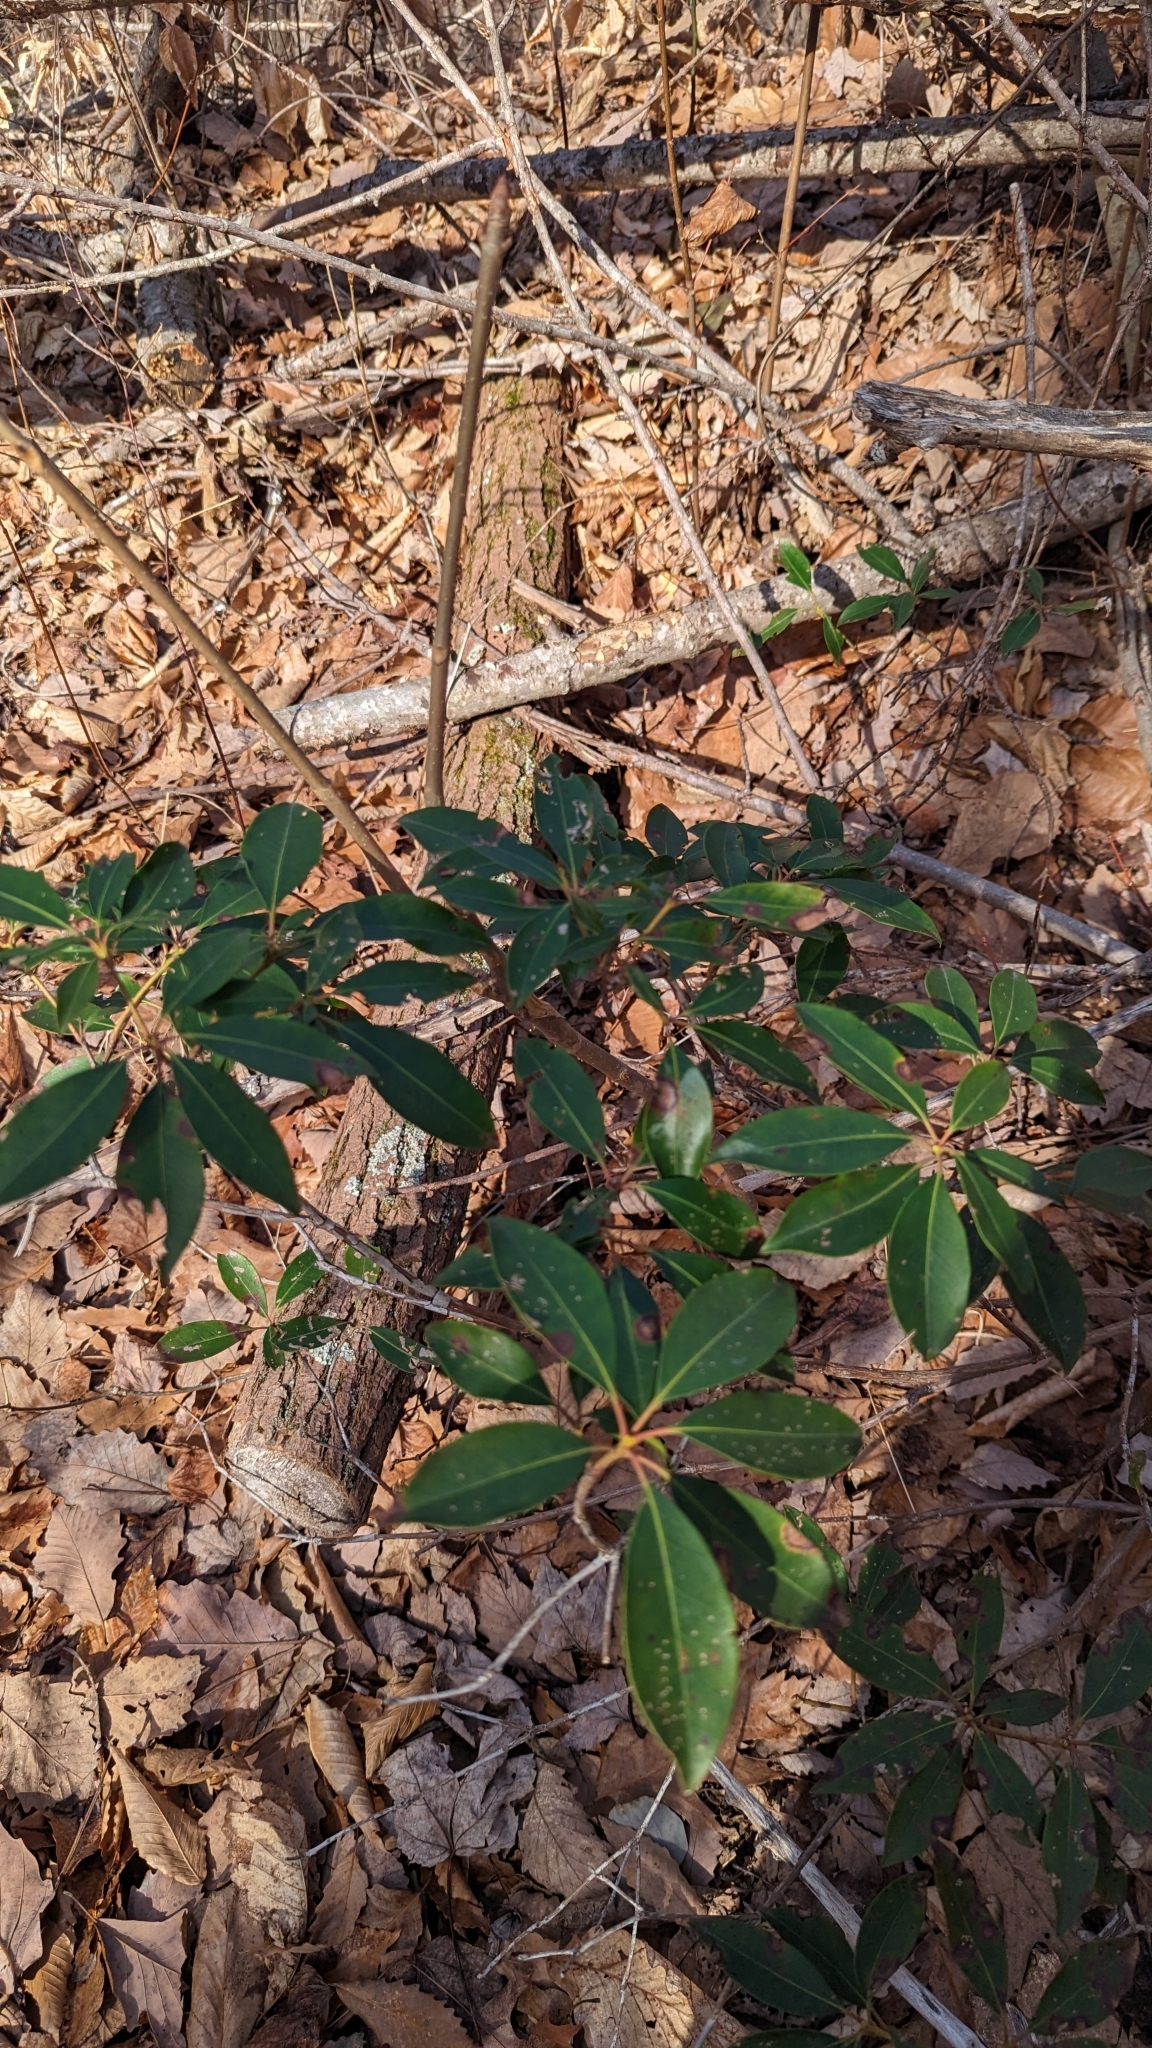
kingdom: Plantae
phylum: Tracheophyta
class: Magnoliopsida
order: Ericales
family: Ericaceae
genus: Kalmia
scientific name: Kalmia latifolia
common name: Mountain-laurel
